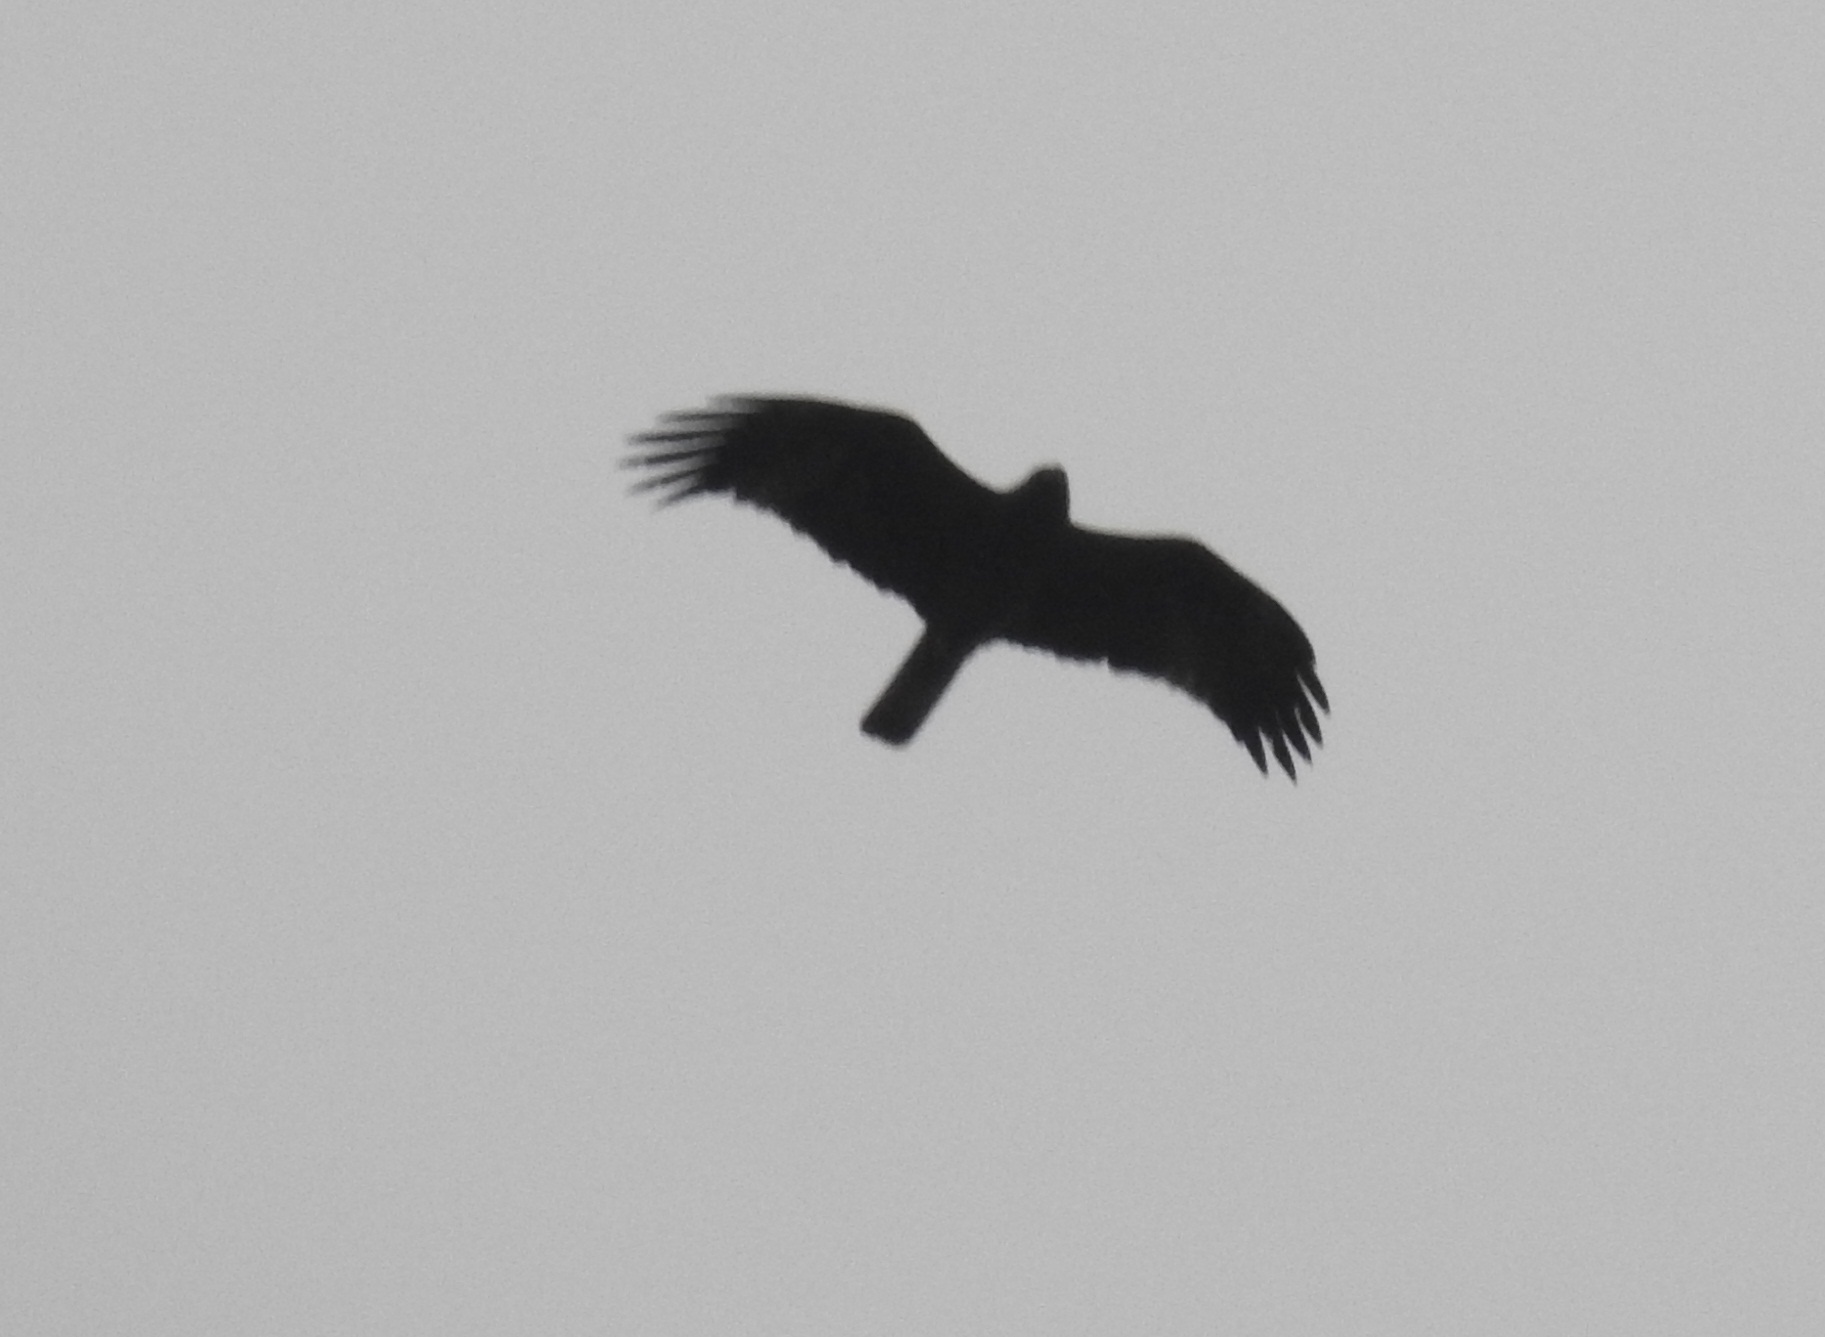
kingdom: Animalia
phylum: Chordata
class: Aves
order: Accipitriformes
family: Accipitridae
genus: Hieraaetus
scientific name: Hieraaetus pennatus
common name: Booted eagle
